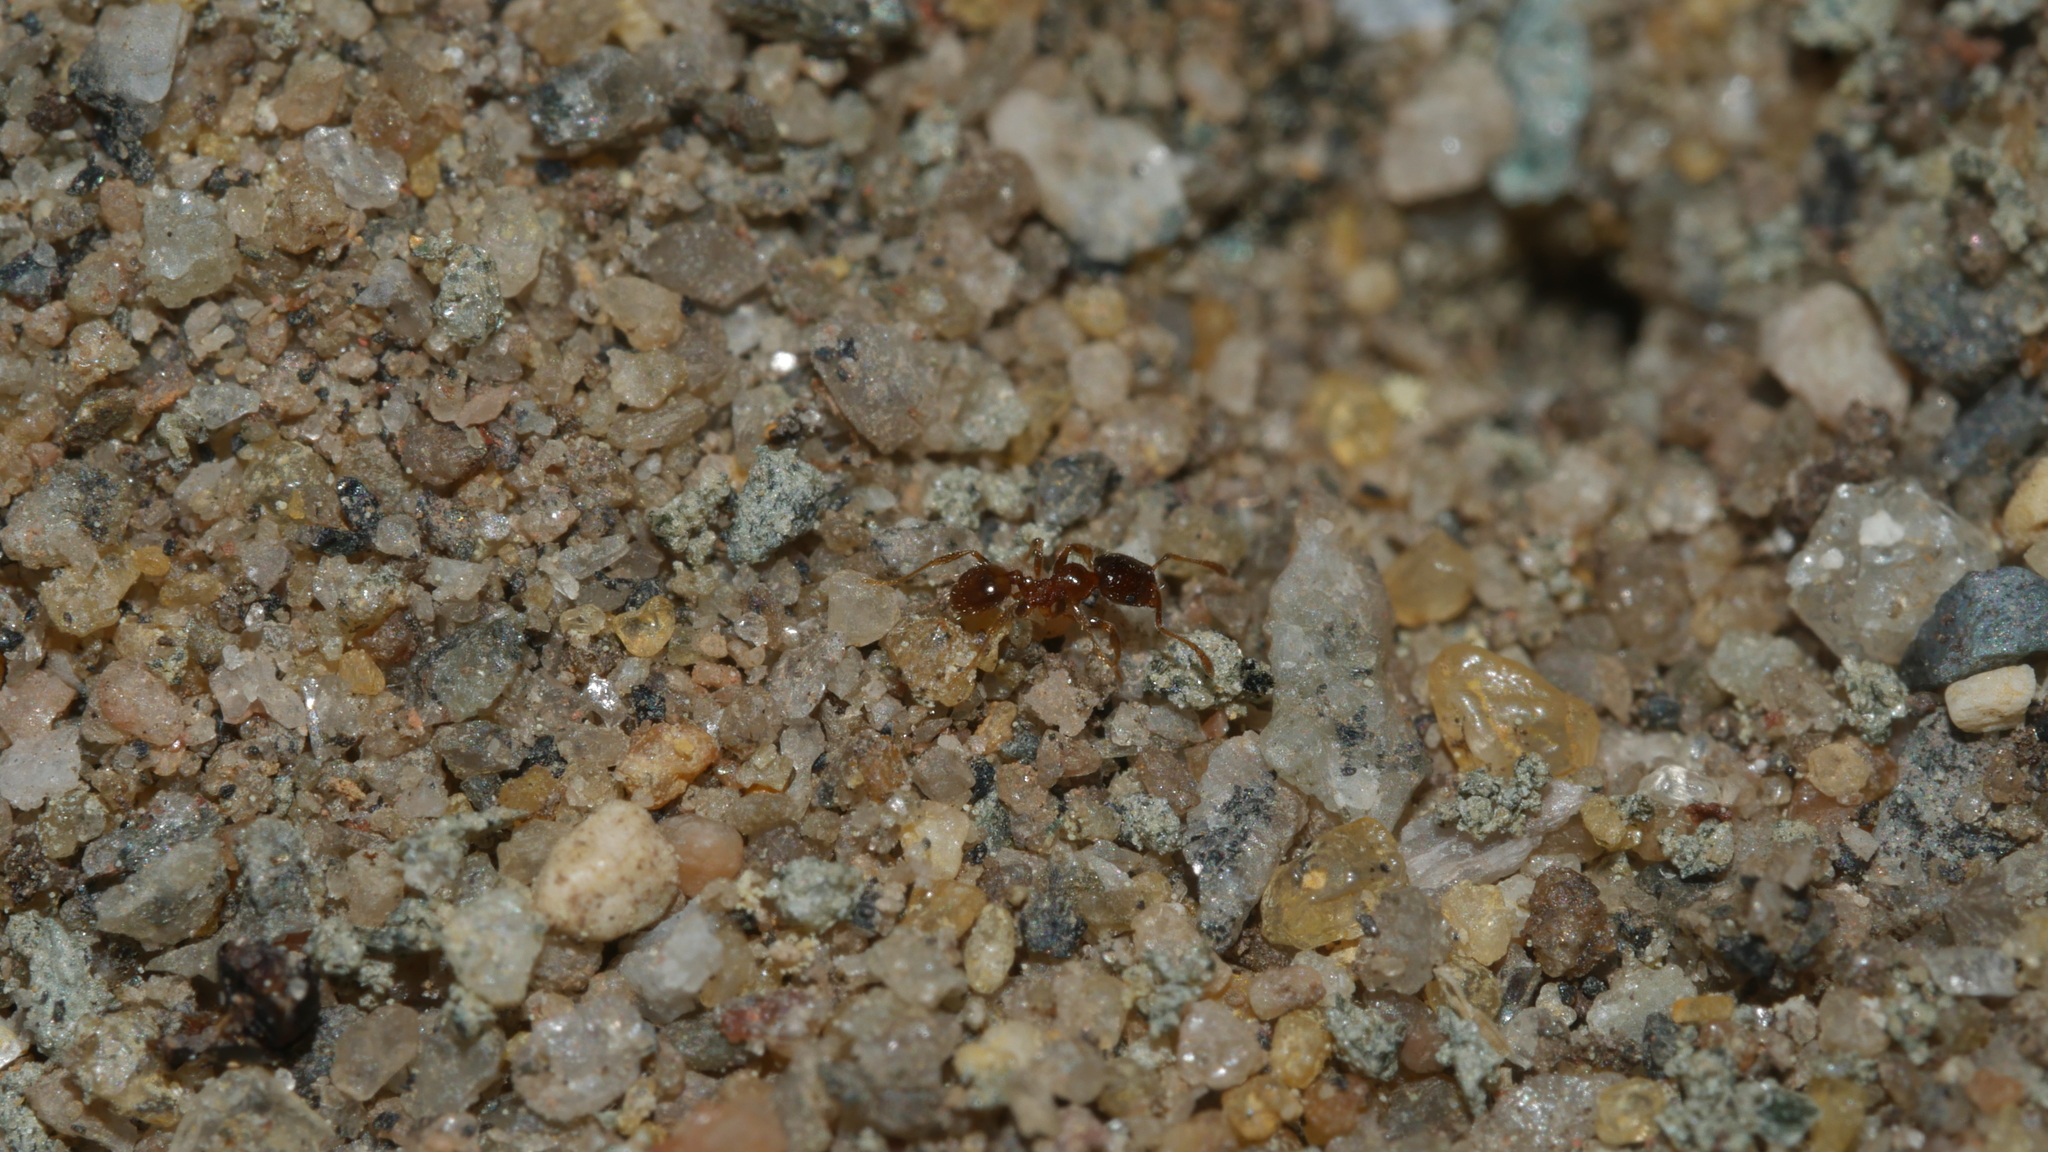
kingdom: Animalia
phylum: Arthropoda
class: Insecta
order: Hymenoptera
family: Formicidae
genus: Pheidole
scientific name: Pheidole bicarinata
